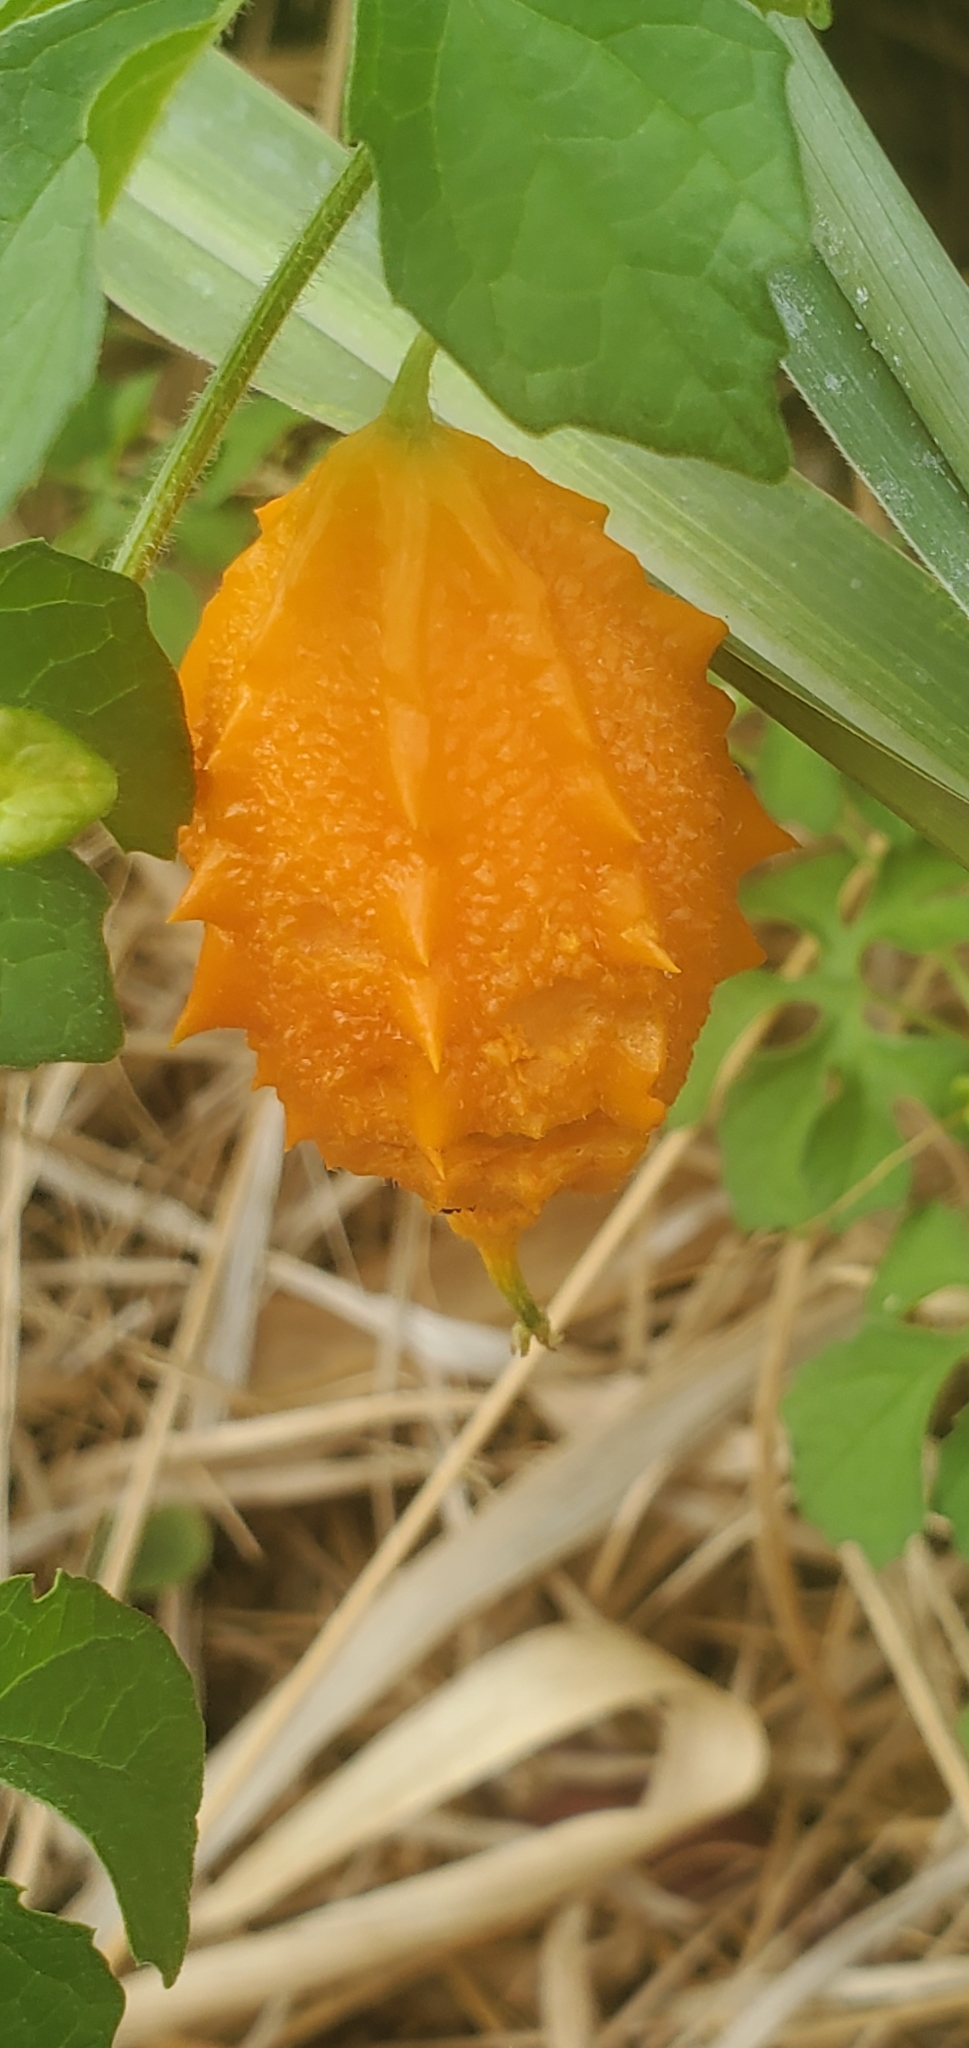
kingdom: Plantae
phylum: Tracheophyta
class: Magnoliopsida
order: Cucurbitales
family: Cucurbitaceae
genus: Momordica
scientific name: Momordica charantia
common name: Balsampear
